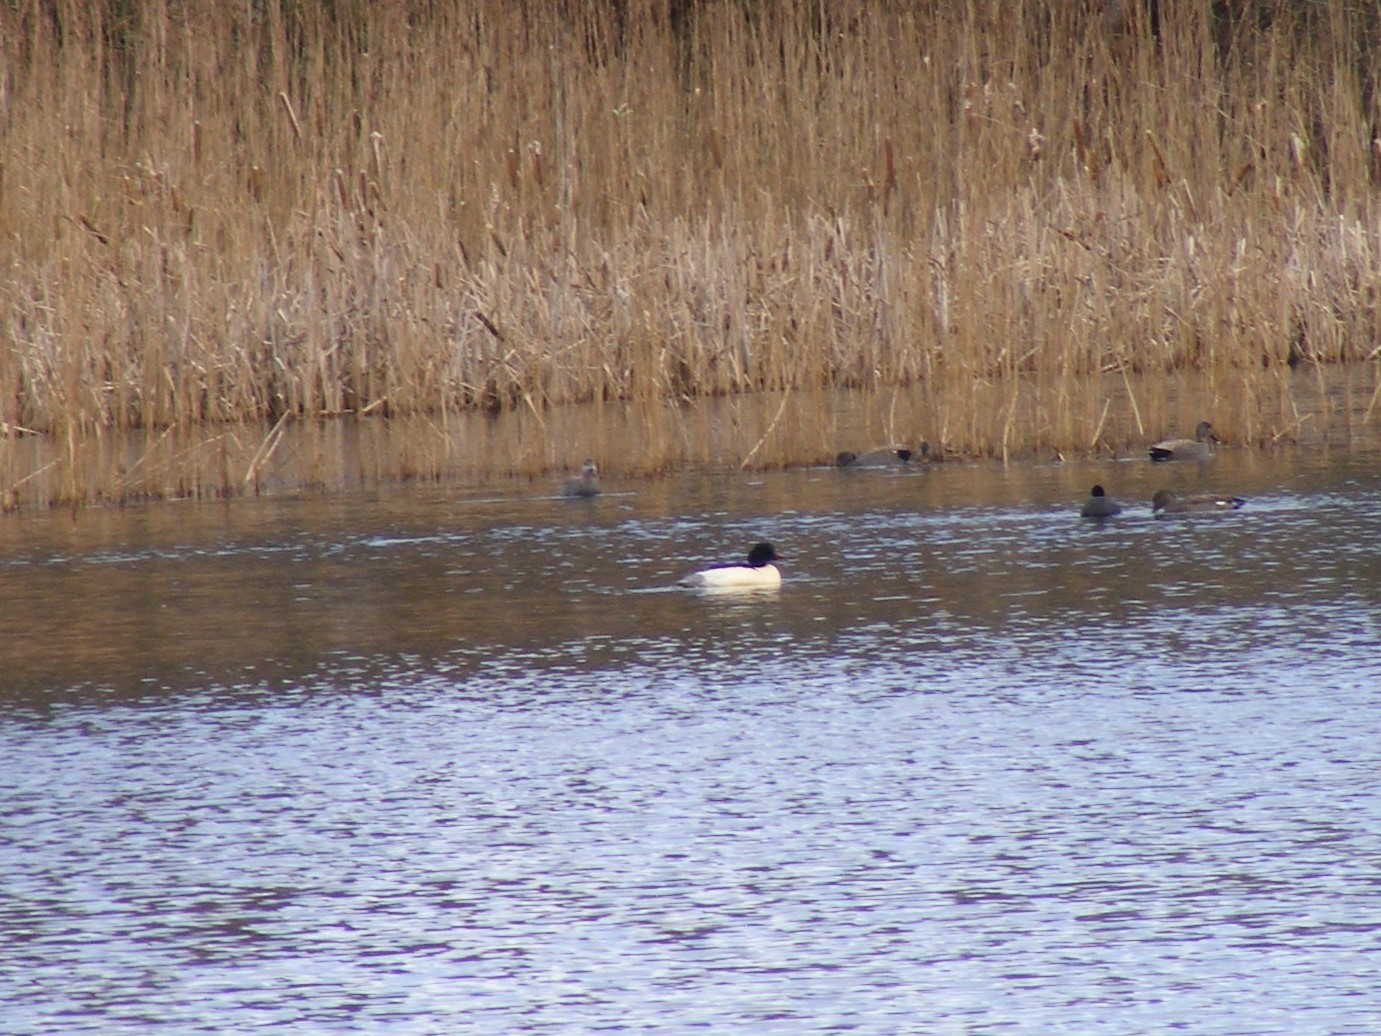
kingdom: Animalia
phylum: Chordata
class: Aves
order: Anseriformes
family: Anatidae
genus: Mergus
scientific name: Mergus merganser
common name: Common merganser
